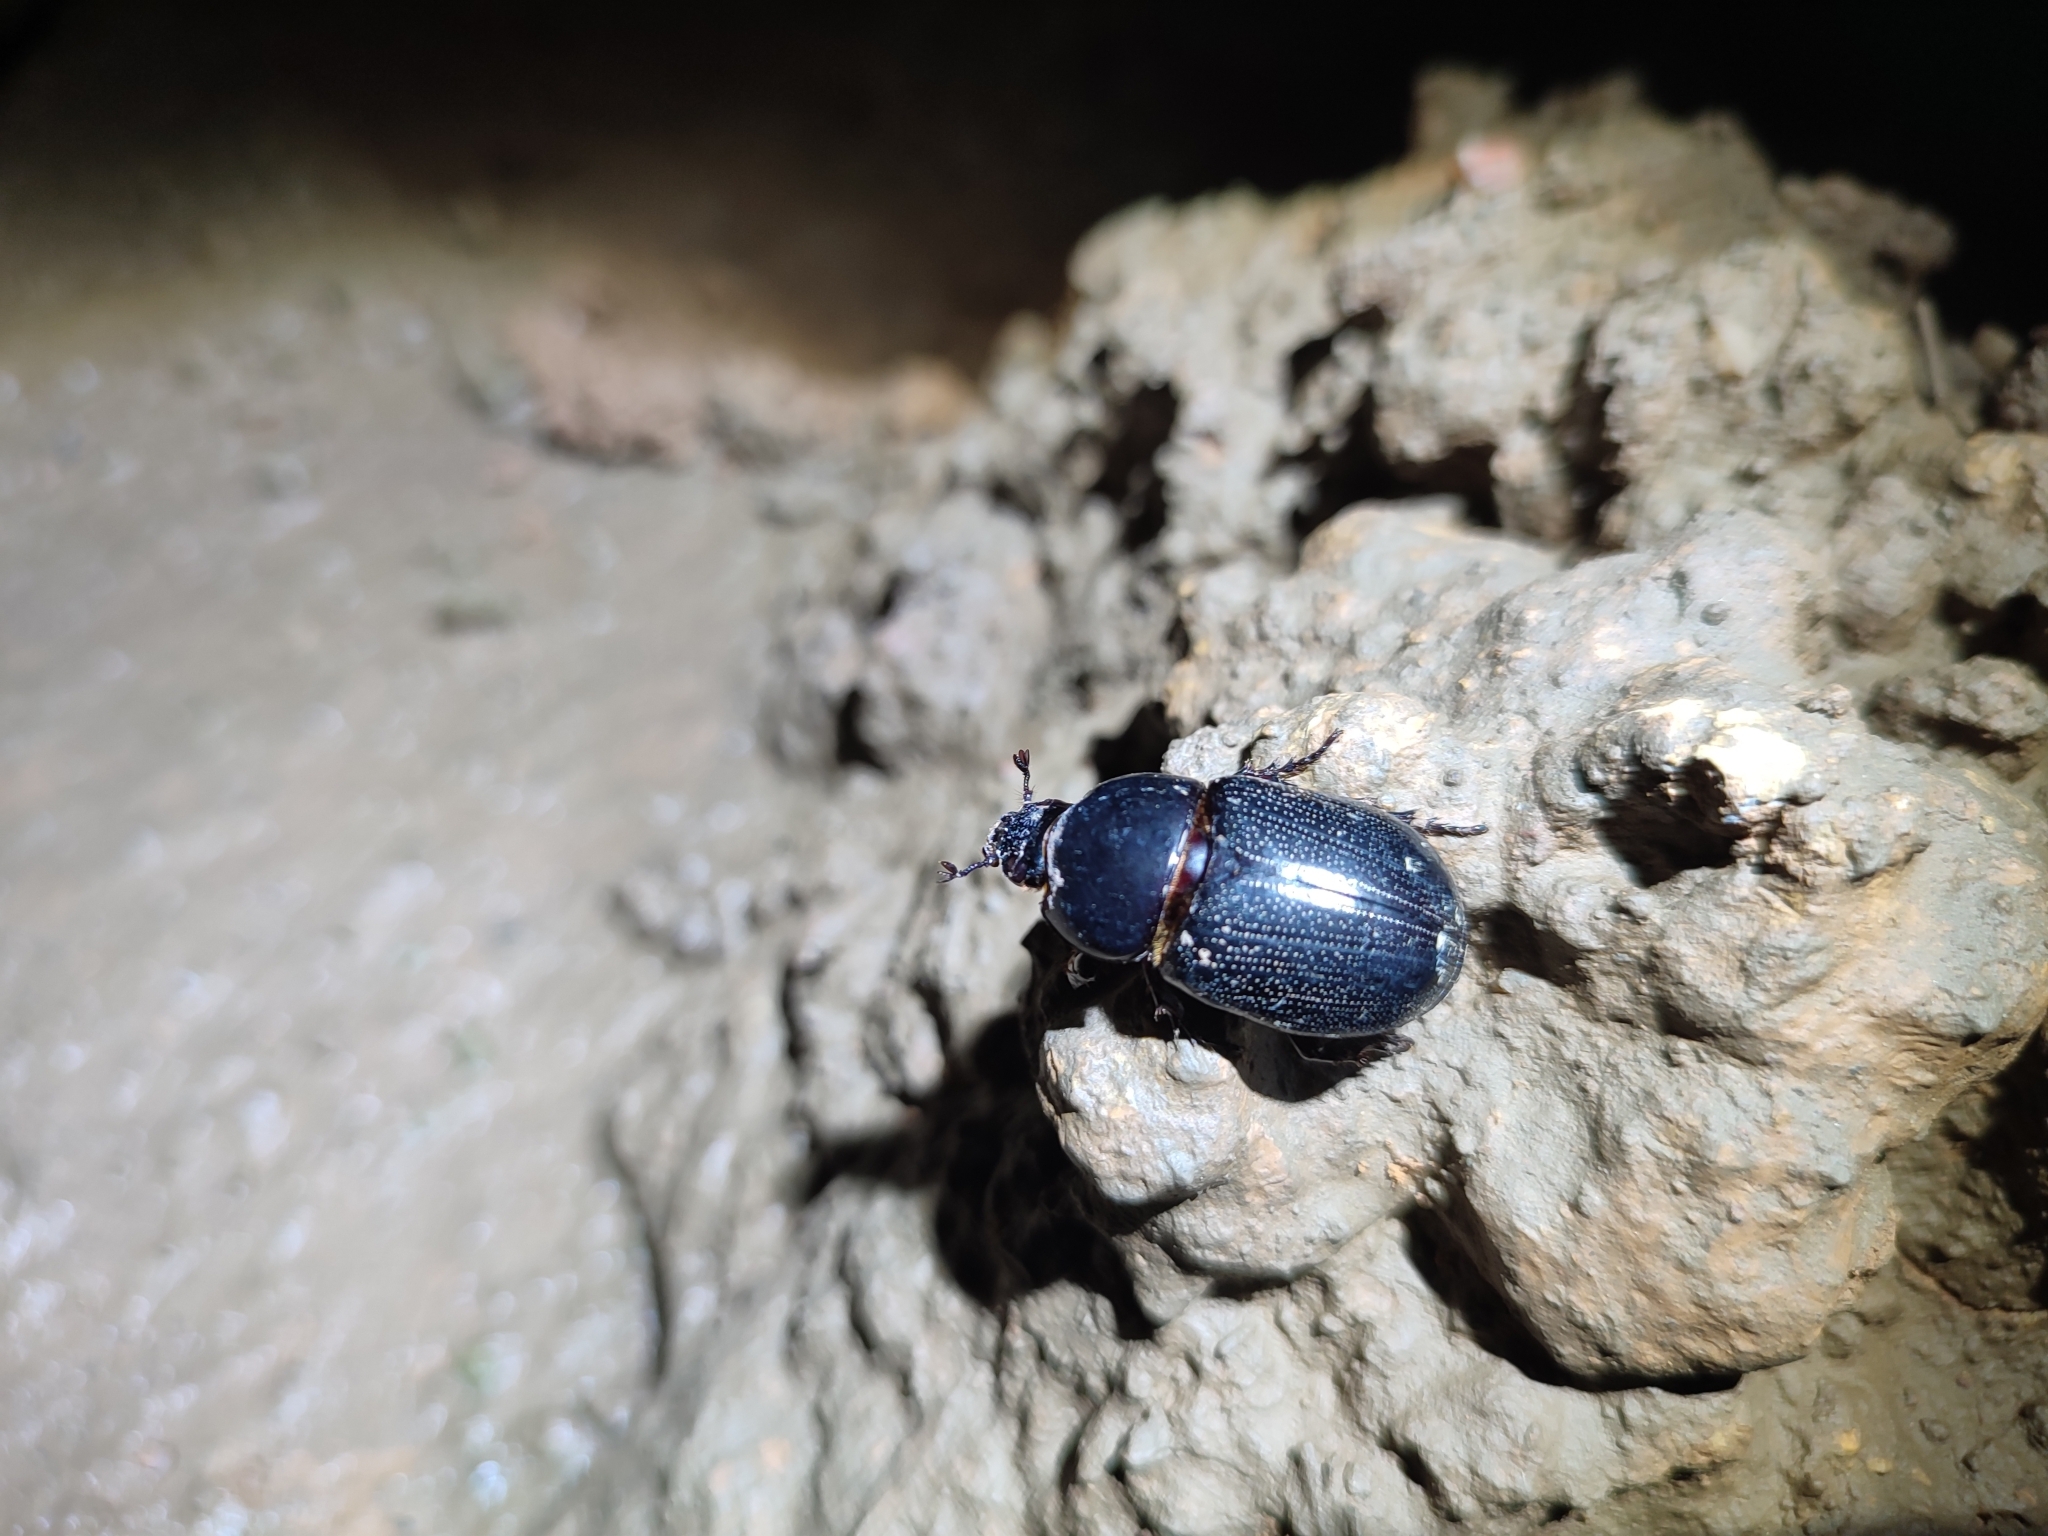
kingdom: Animalia
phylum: Arthropoda
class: Insecta
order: Coleoptera
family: Scarabaeidae
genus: Papuana
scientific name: Papuana lansbergei
